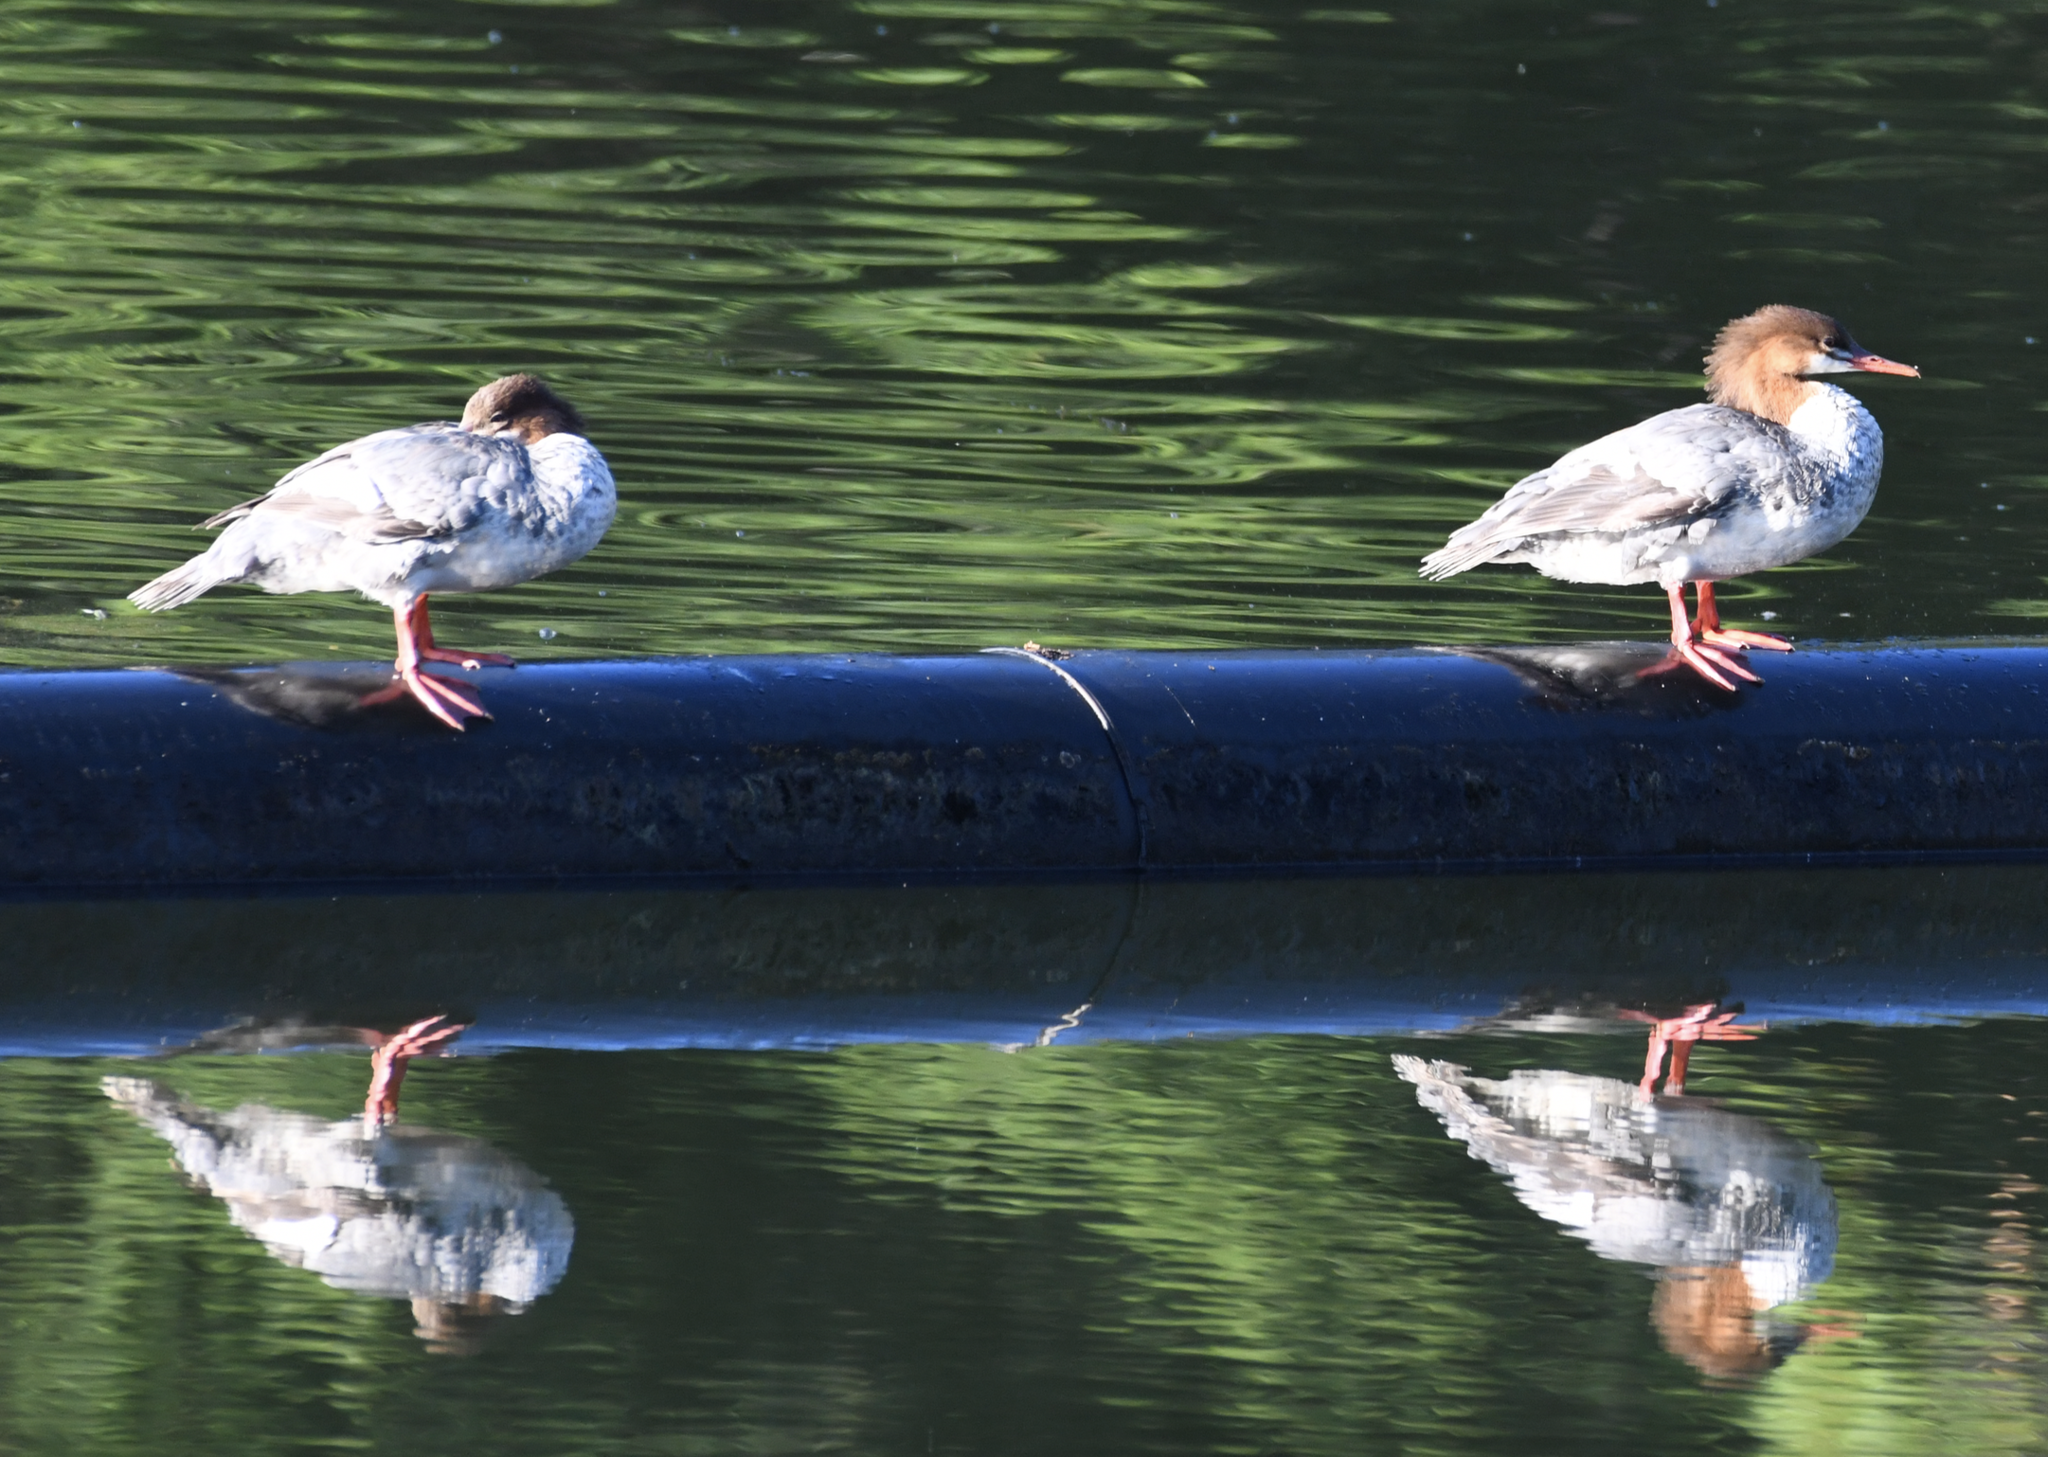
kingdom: Animalia
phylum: Chordata
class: Aves
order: Anseriformes
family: Anatidae
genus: Mergus
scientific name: Mergus merganser
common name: Common merganser
